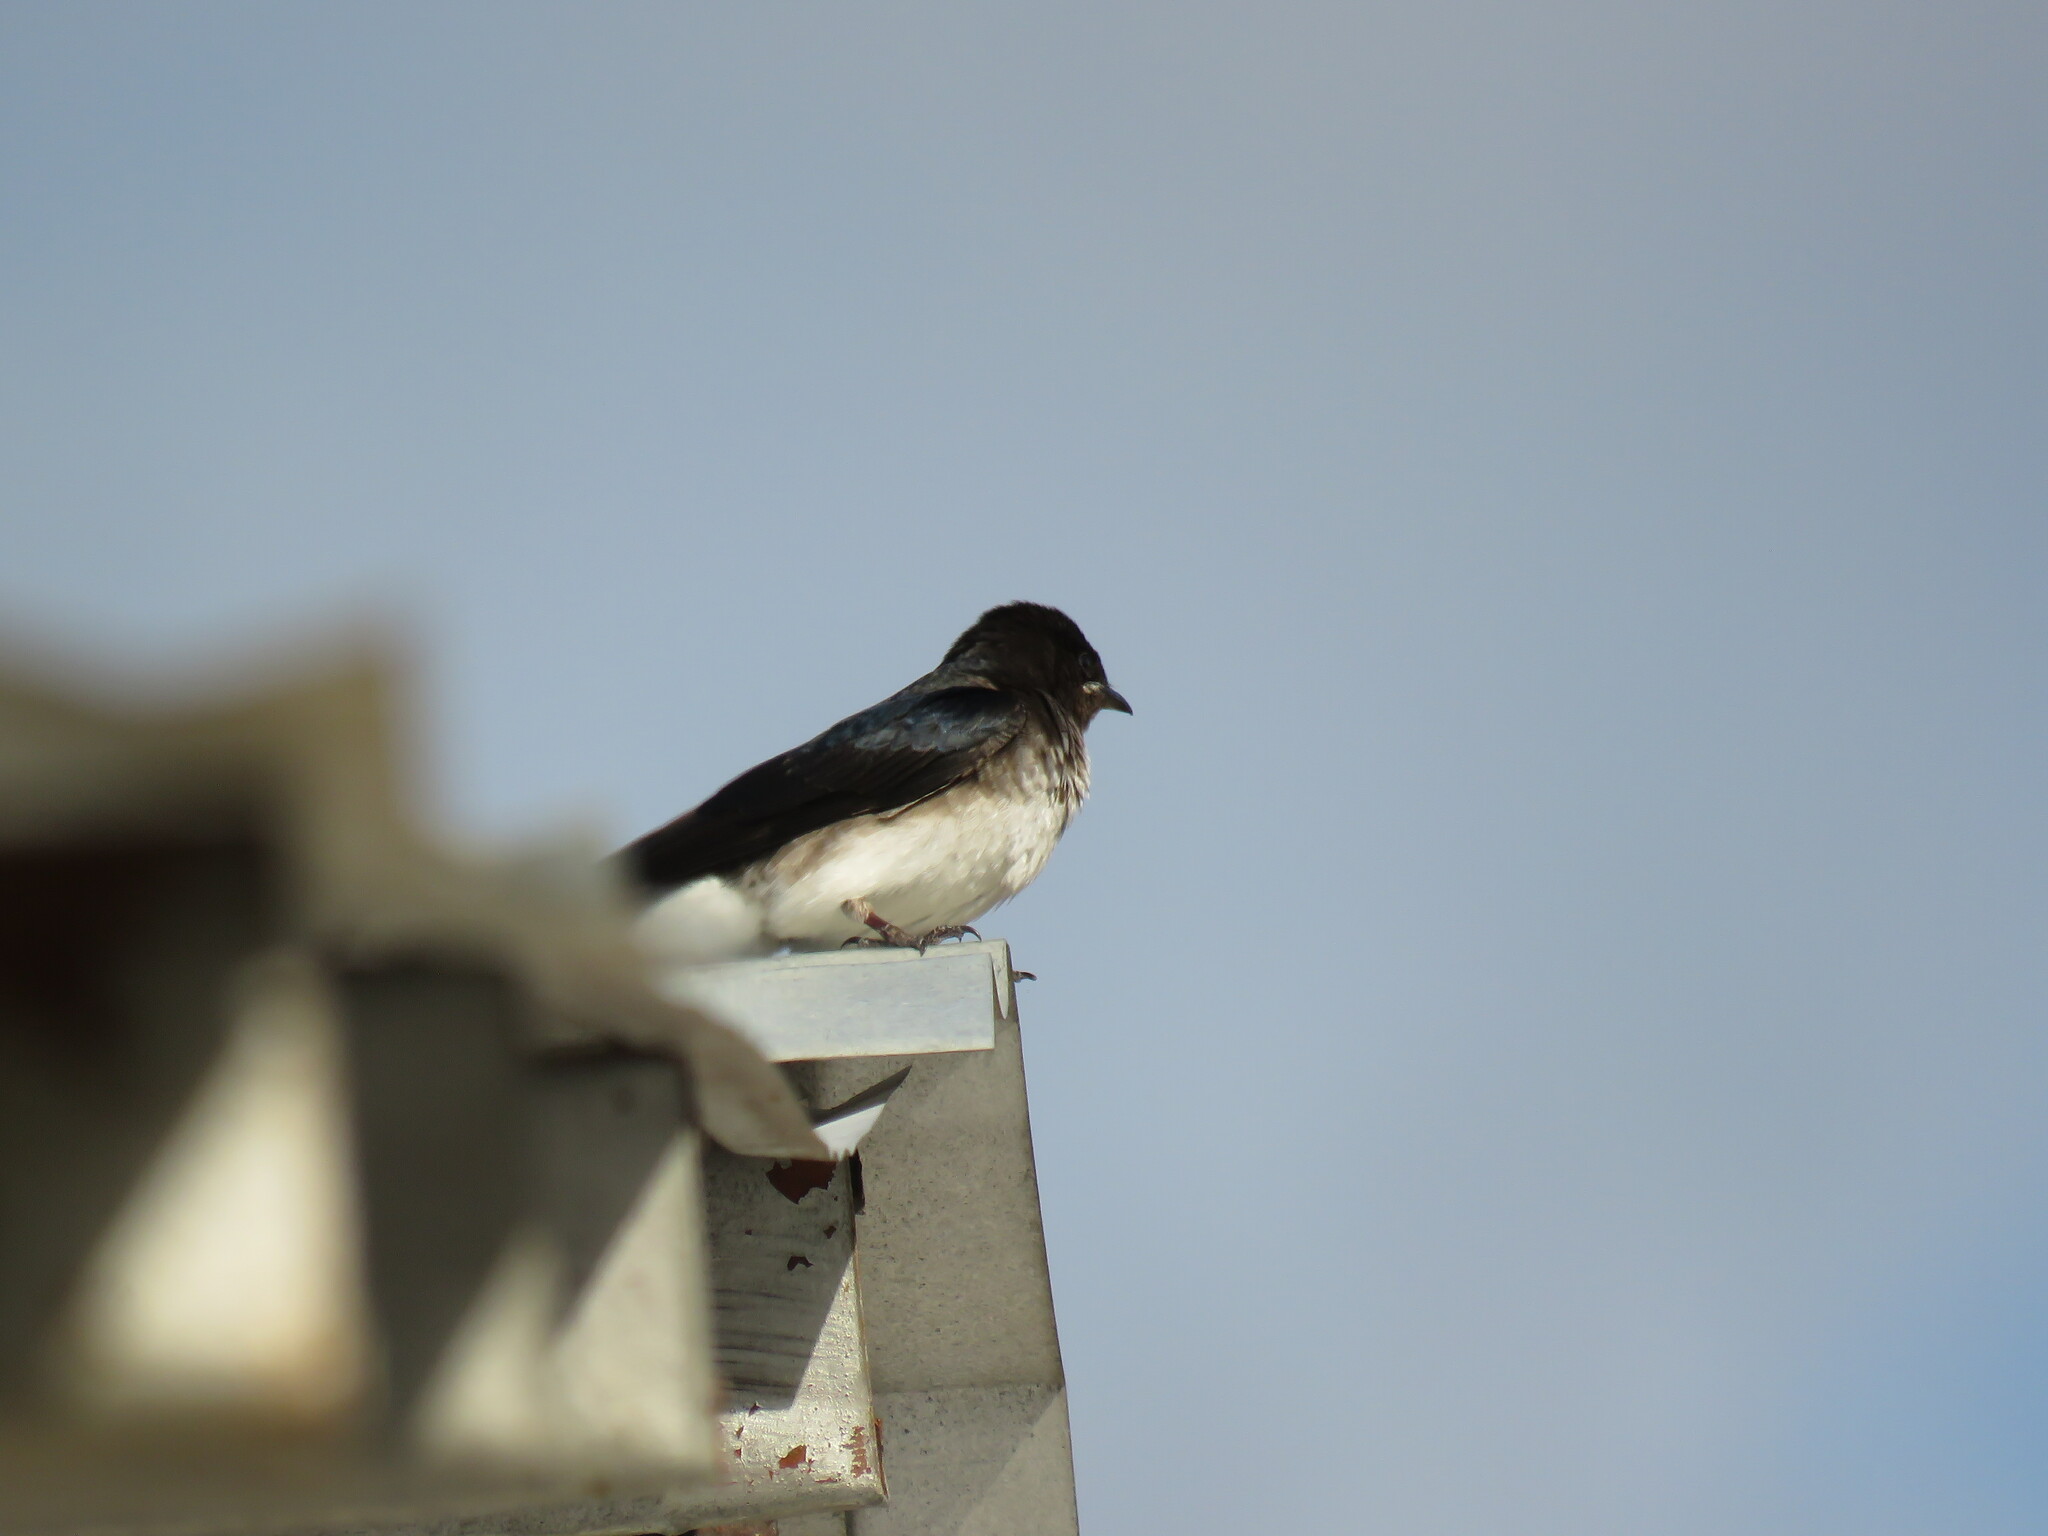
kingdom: Animalia
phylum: Chordata
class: Aves
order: Passeriformes
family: Hirundinidae
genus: Progne
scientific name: Progne chalybea
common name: Grey-breasted martin
